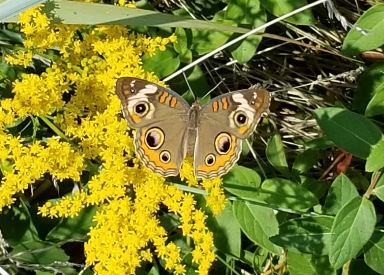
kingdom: Animalia
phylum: Arthropoda
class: Insecta
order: Lepidoptera
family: Nymphalidae
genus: Junonia
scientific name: Junonia coenia
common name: Common buckeye
